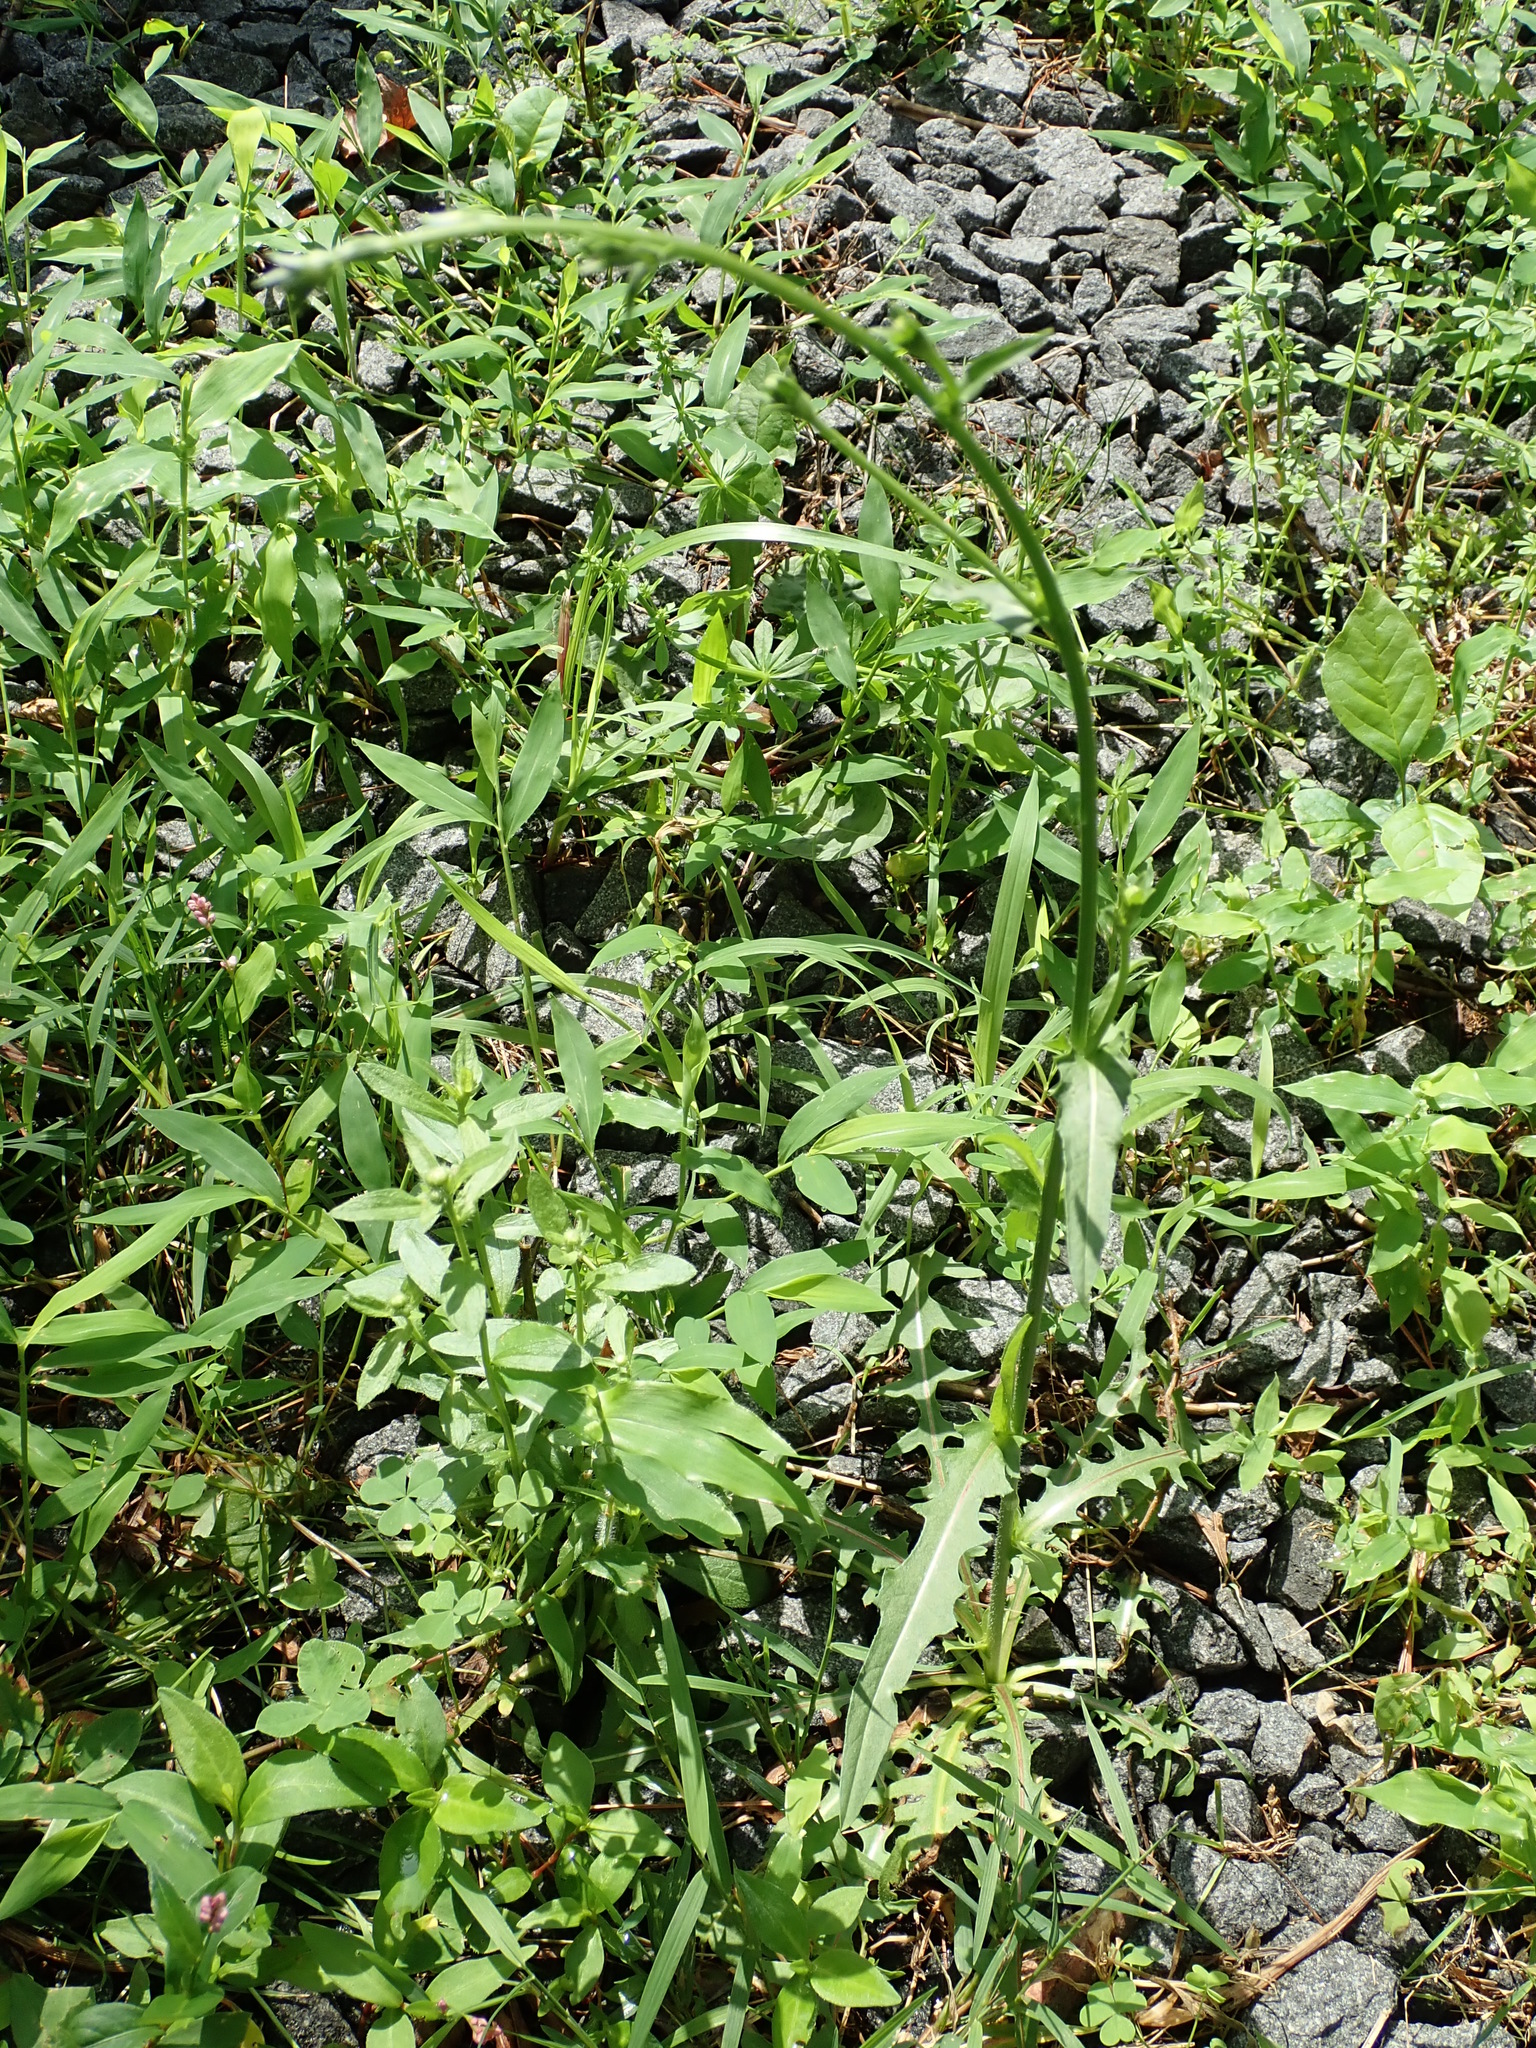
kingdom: Plantae
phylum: Tracheophyta
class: Magnoliopsida
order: Asterales
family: Asteraceae
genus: Cichorium
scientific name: Cichorium intybus
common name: Chicory
